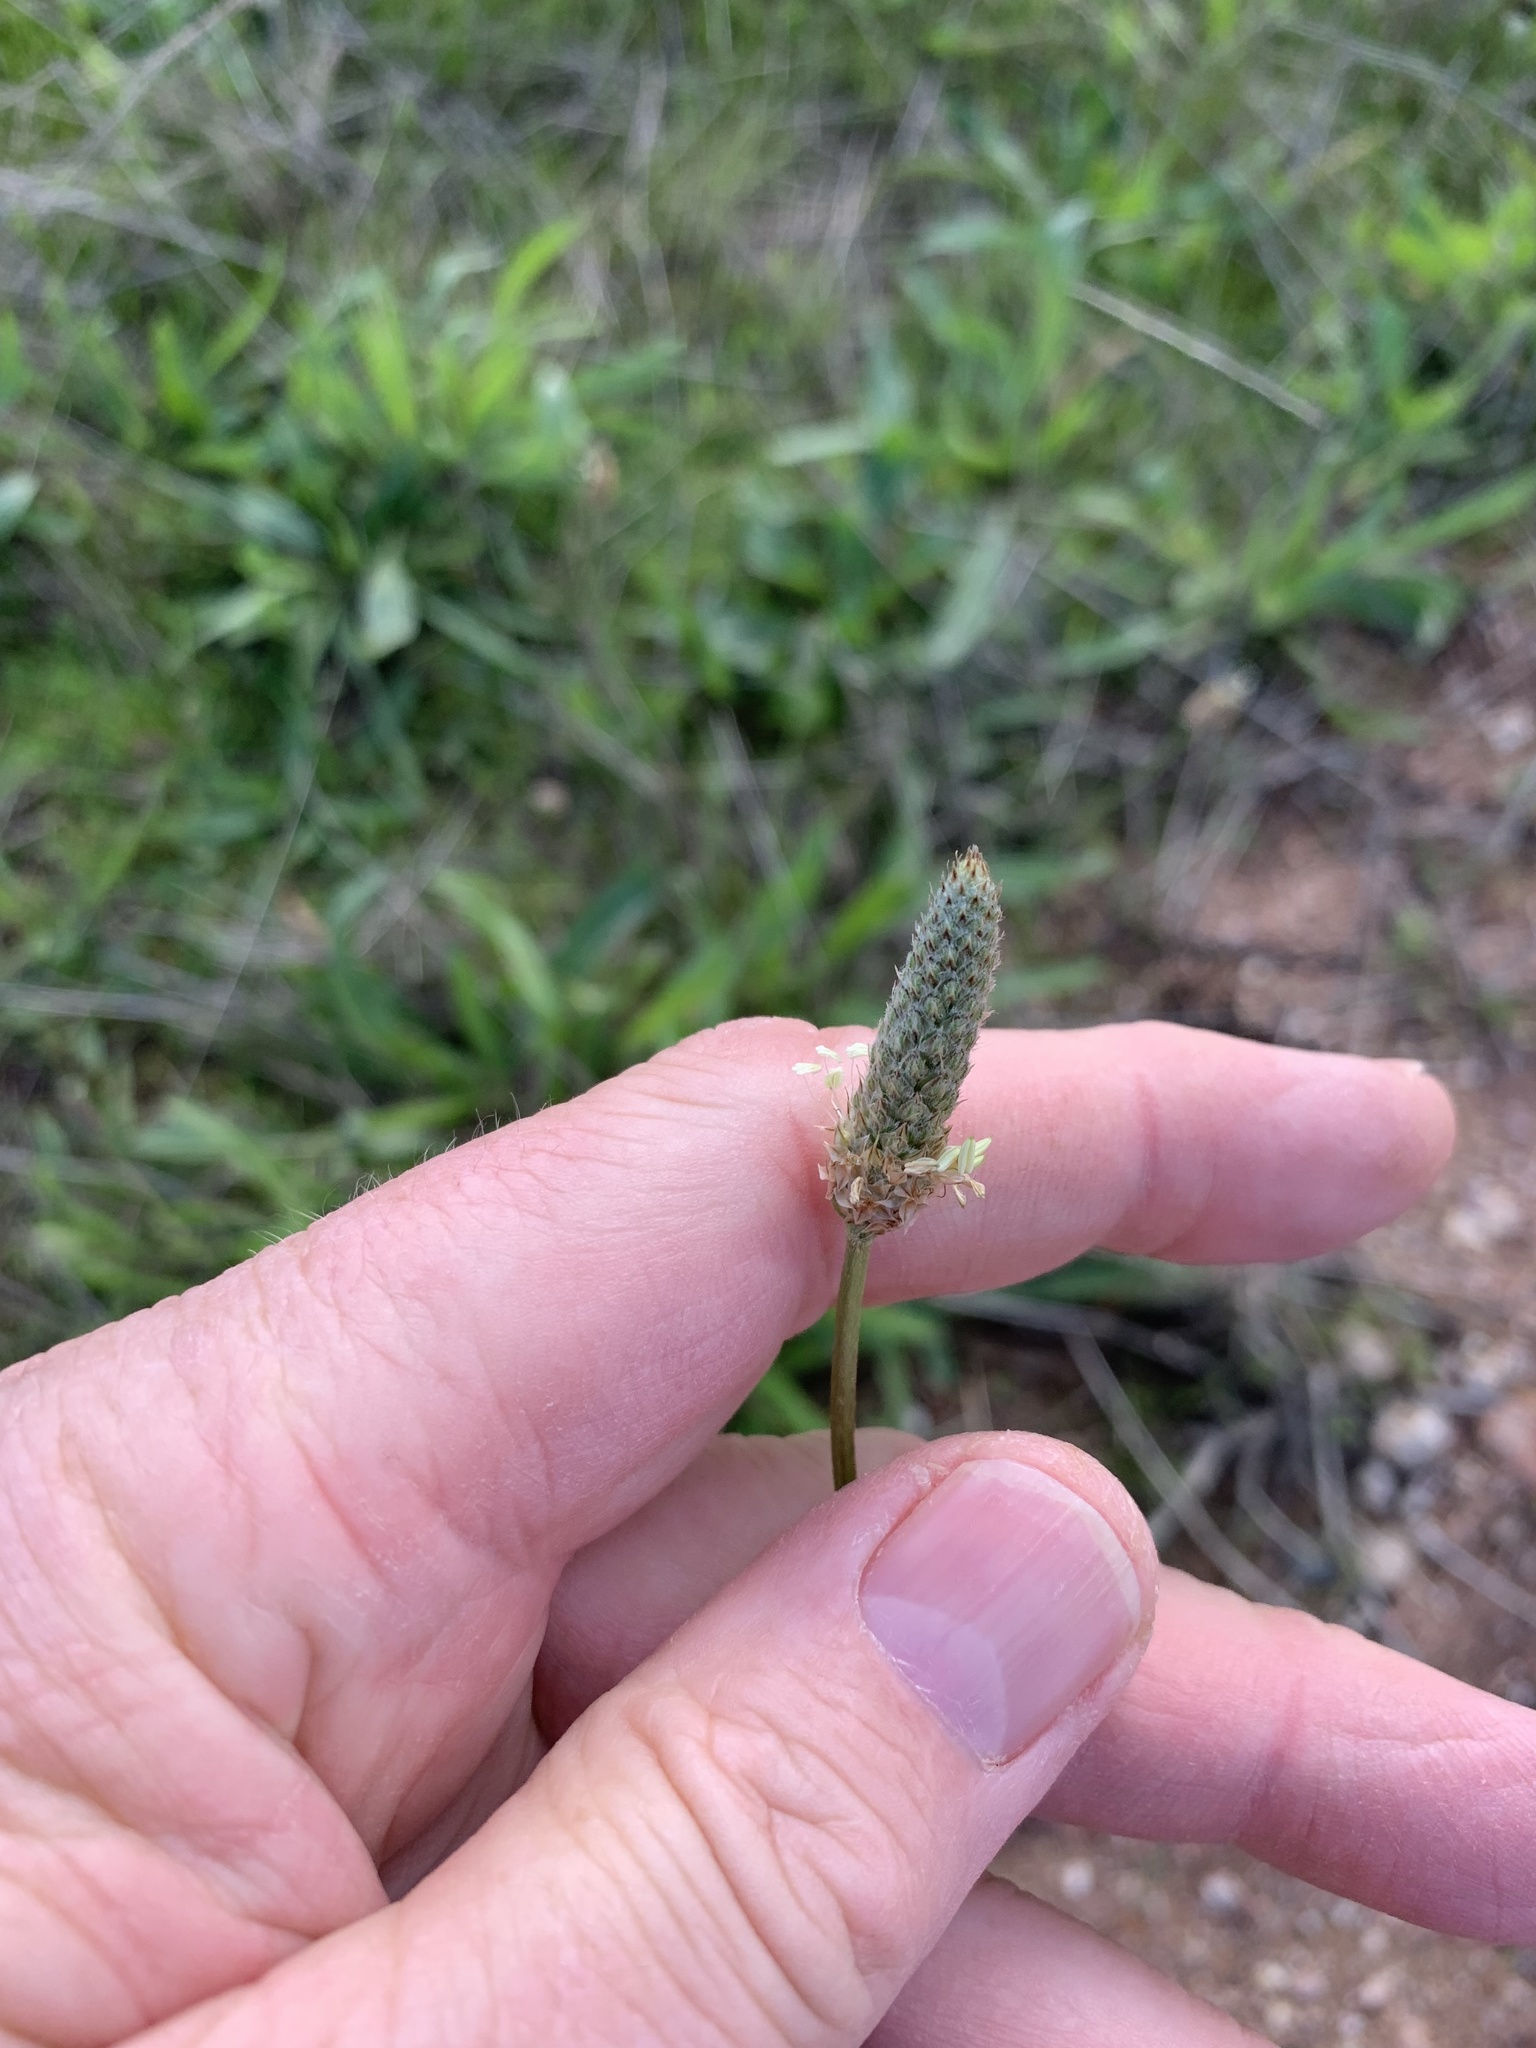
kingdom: Plantae
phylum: Tracheophyta
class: Magnoliopsida
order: Lamiales
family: Plantaginaceae
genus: Plantago
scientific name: Plantago lanceolata
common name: Ribwort plantain
